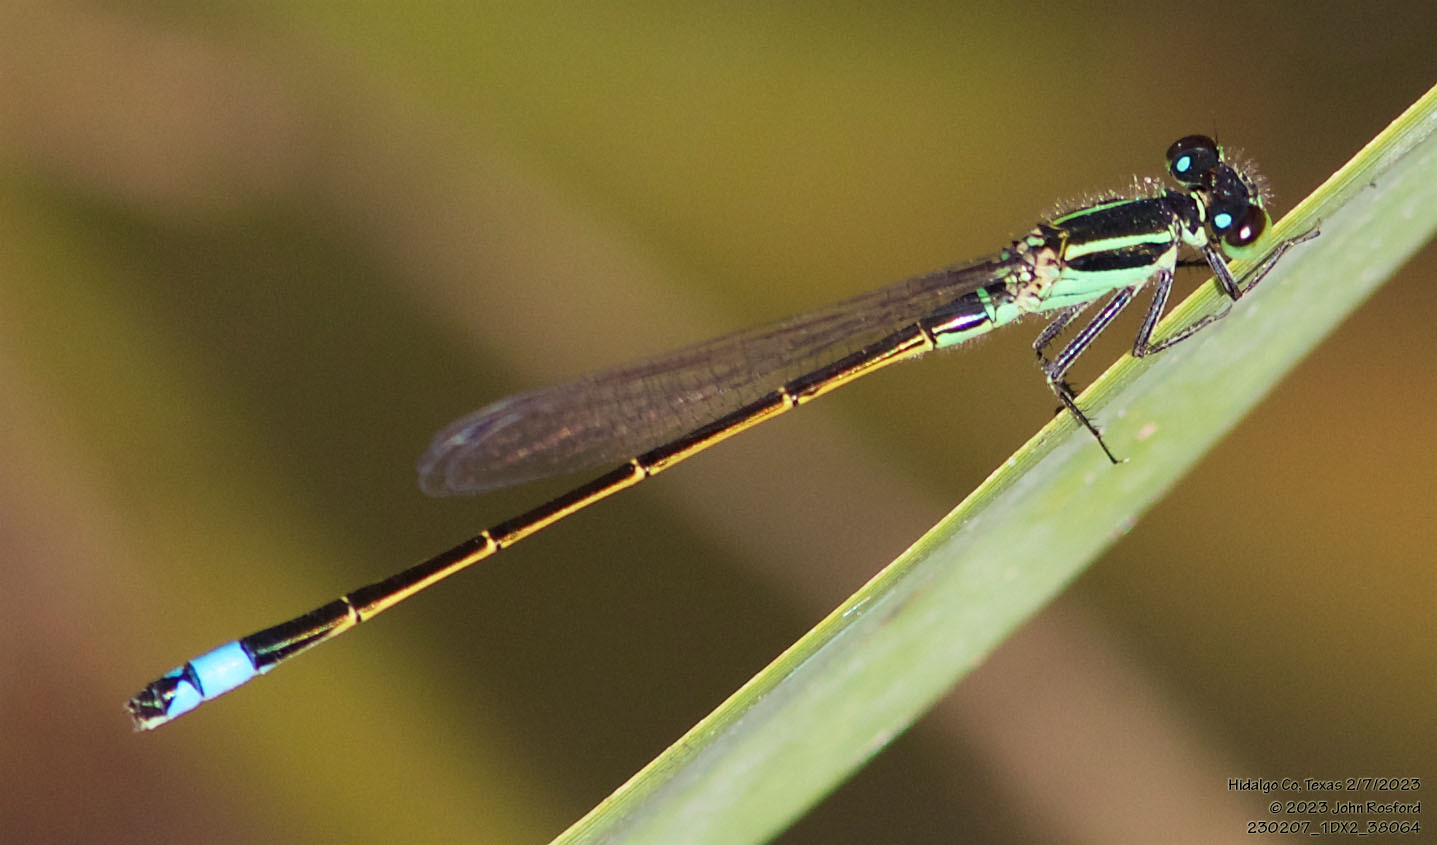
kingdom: Animalia
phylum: Arthropoda
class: Insecta
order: Odonata
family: Coenagrionidae
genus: Ischnura
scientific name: Ischnura ramburii
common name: Rambur's forktail
